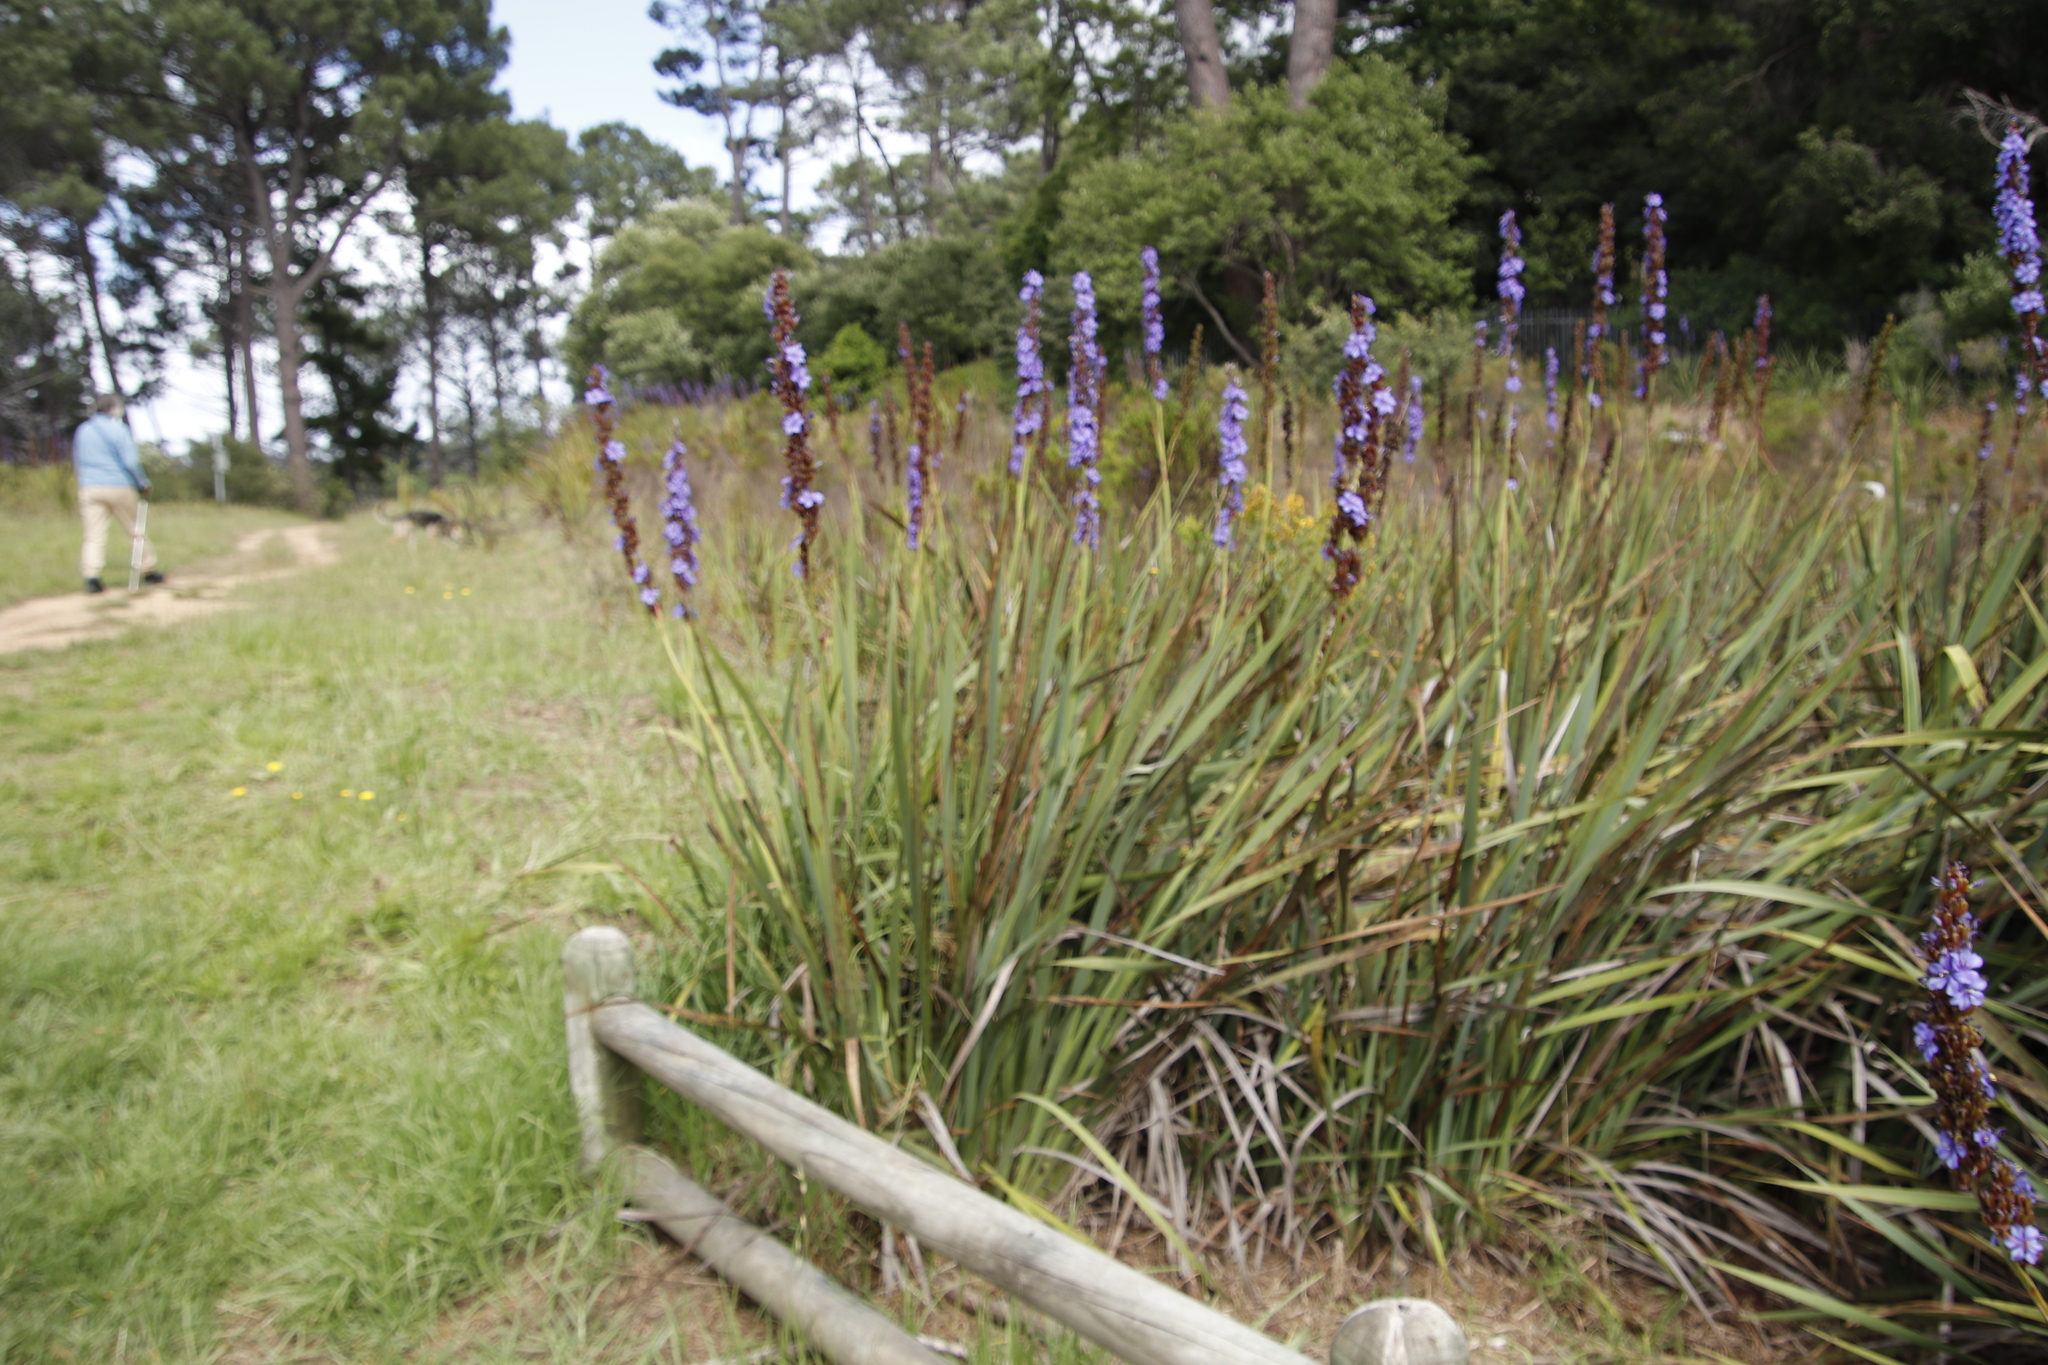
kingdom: Plantae
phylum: Tracheophyta
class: Liliopsida
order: Asparagales
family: Iridaceae
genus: Aristea
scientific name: Aristea capitata
